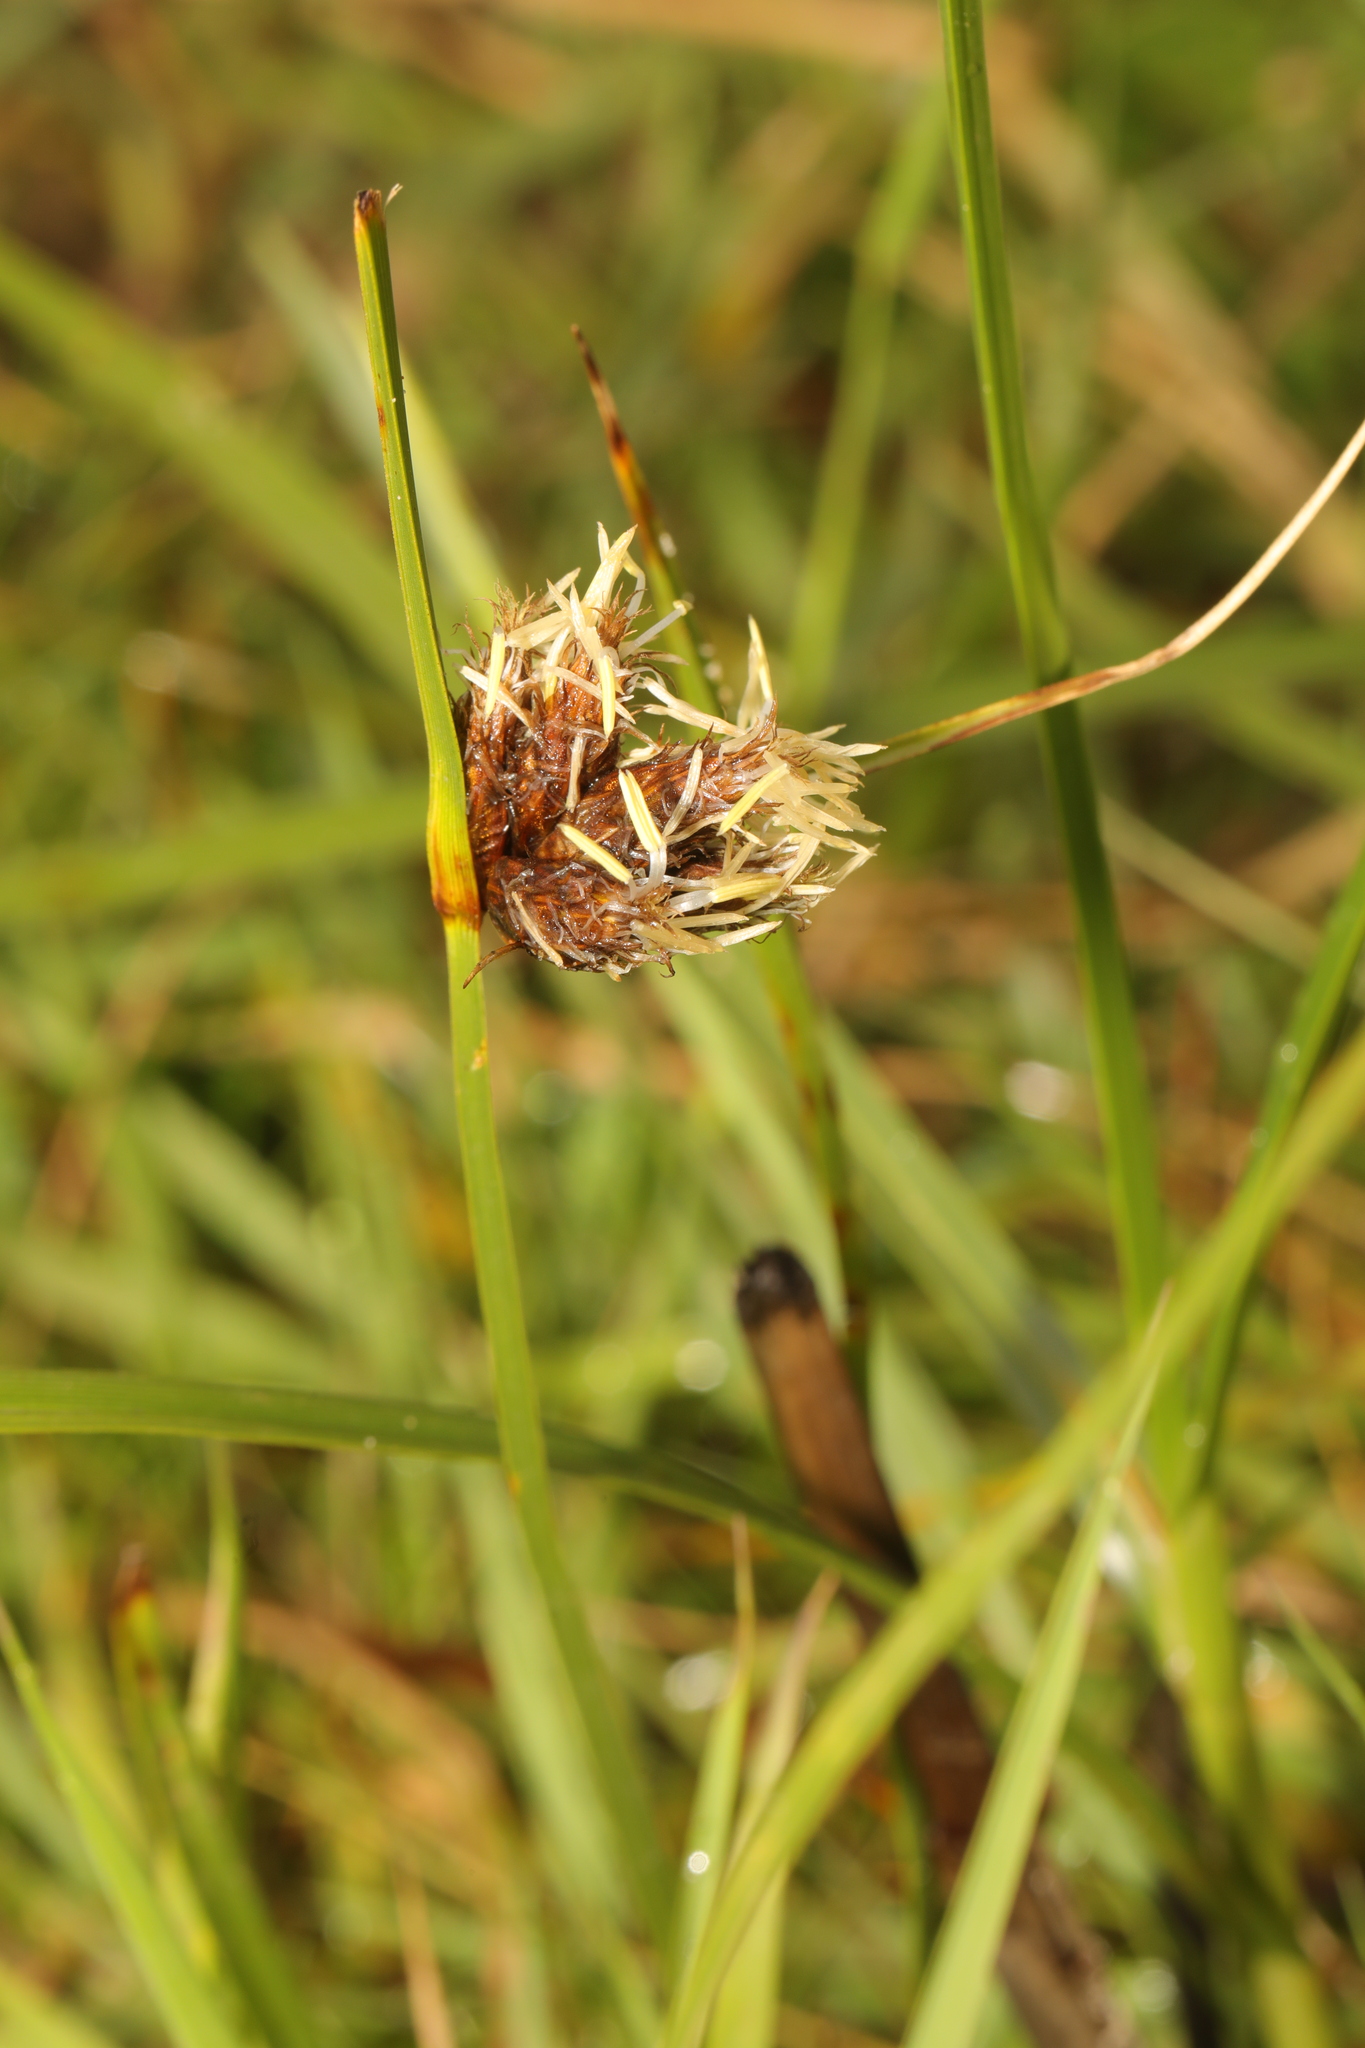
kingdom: Plantae
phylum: Tracheophyta
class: Liliopsida
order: Poales
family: Cyperaceae
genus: Bolboschoenus
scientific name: Bolboschoenus maritimus
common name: Sea club-rush
